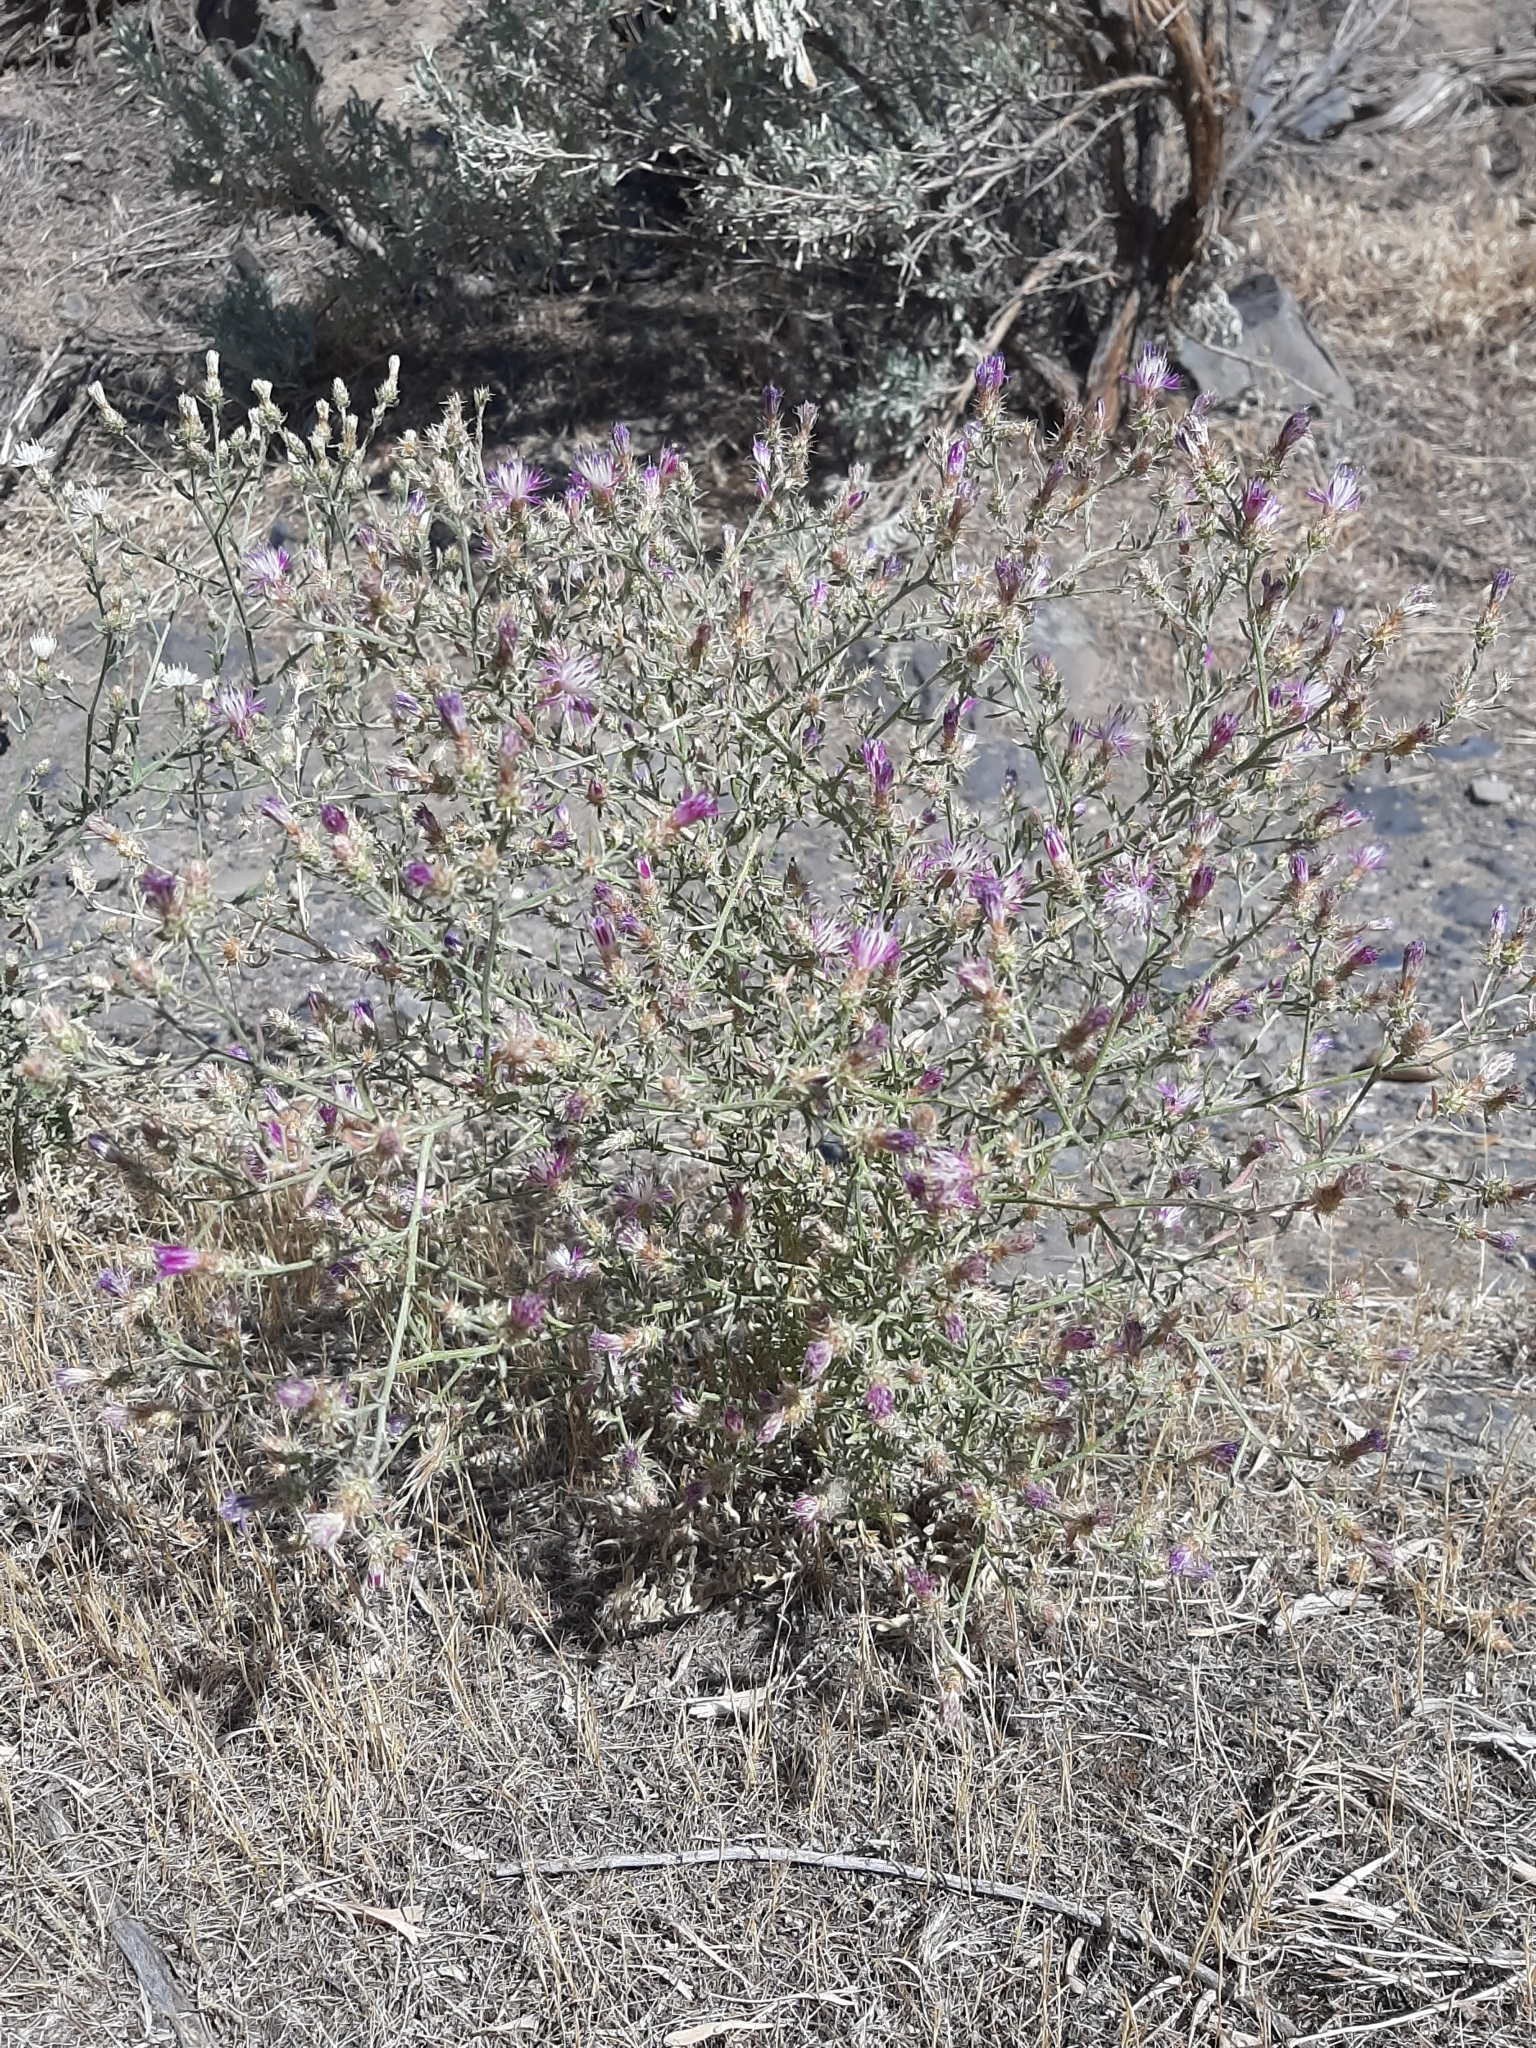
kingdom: Plantae
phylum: Tracheophyta
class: Magnoliopsida
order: Asterales
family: Asteraceae
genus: Centaurea
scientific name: Centaurea diffusa
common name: Diffuse knapweed
